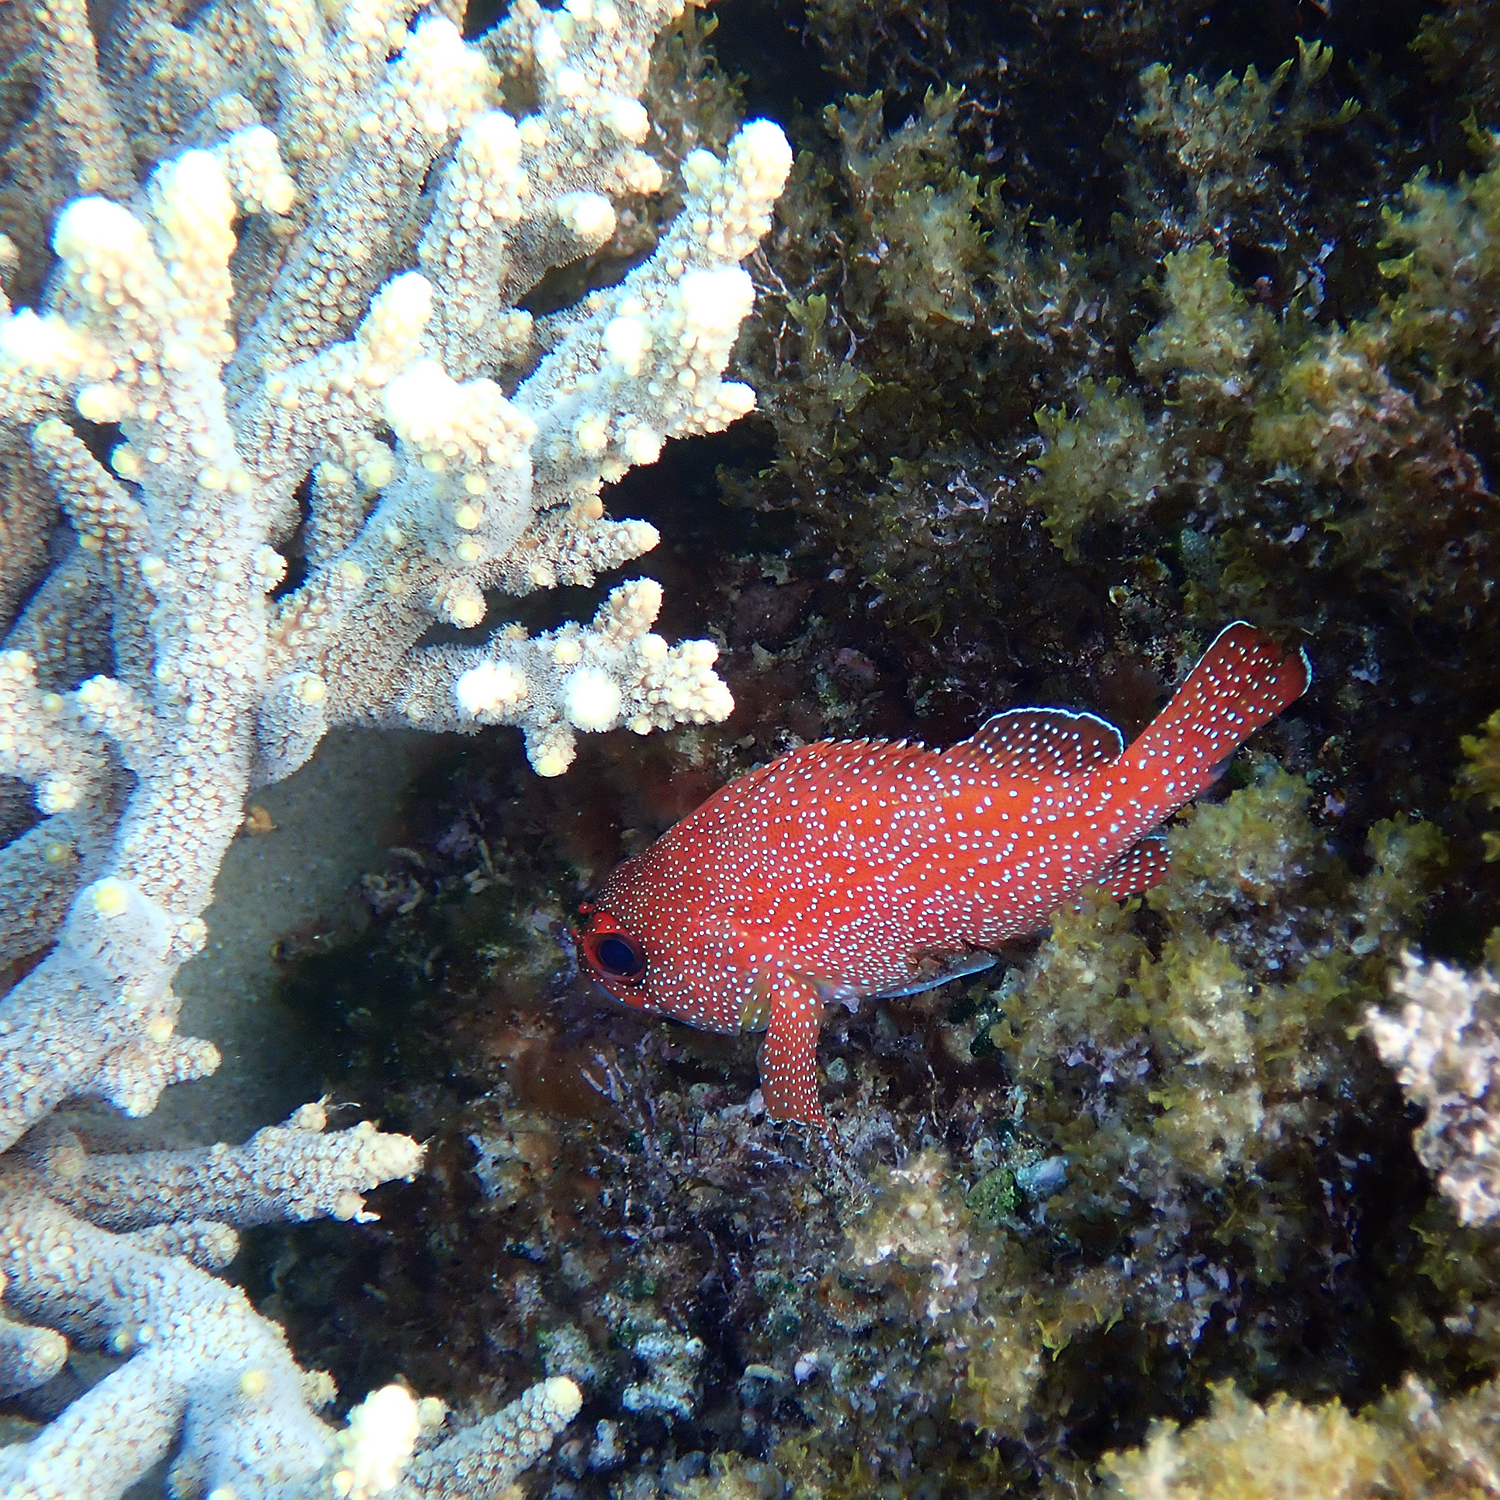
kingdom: Animalia
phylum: Chordata
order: Perciformes
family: Serranidae
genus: Trachypoma
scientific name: Trachypoma macracanthus
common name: Toadstool grouper
